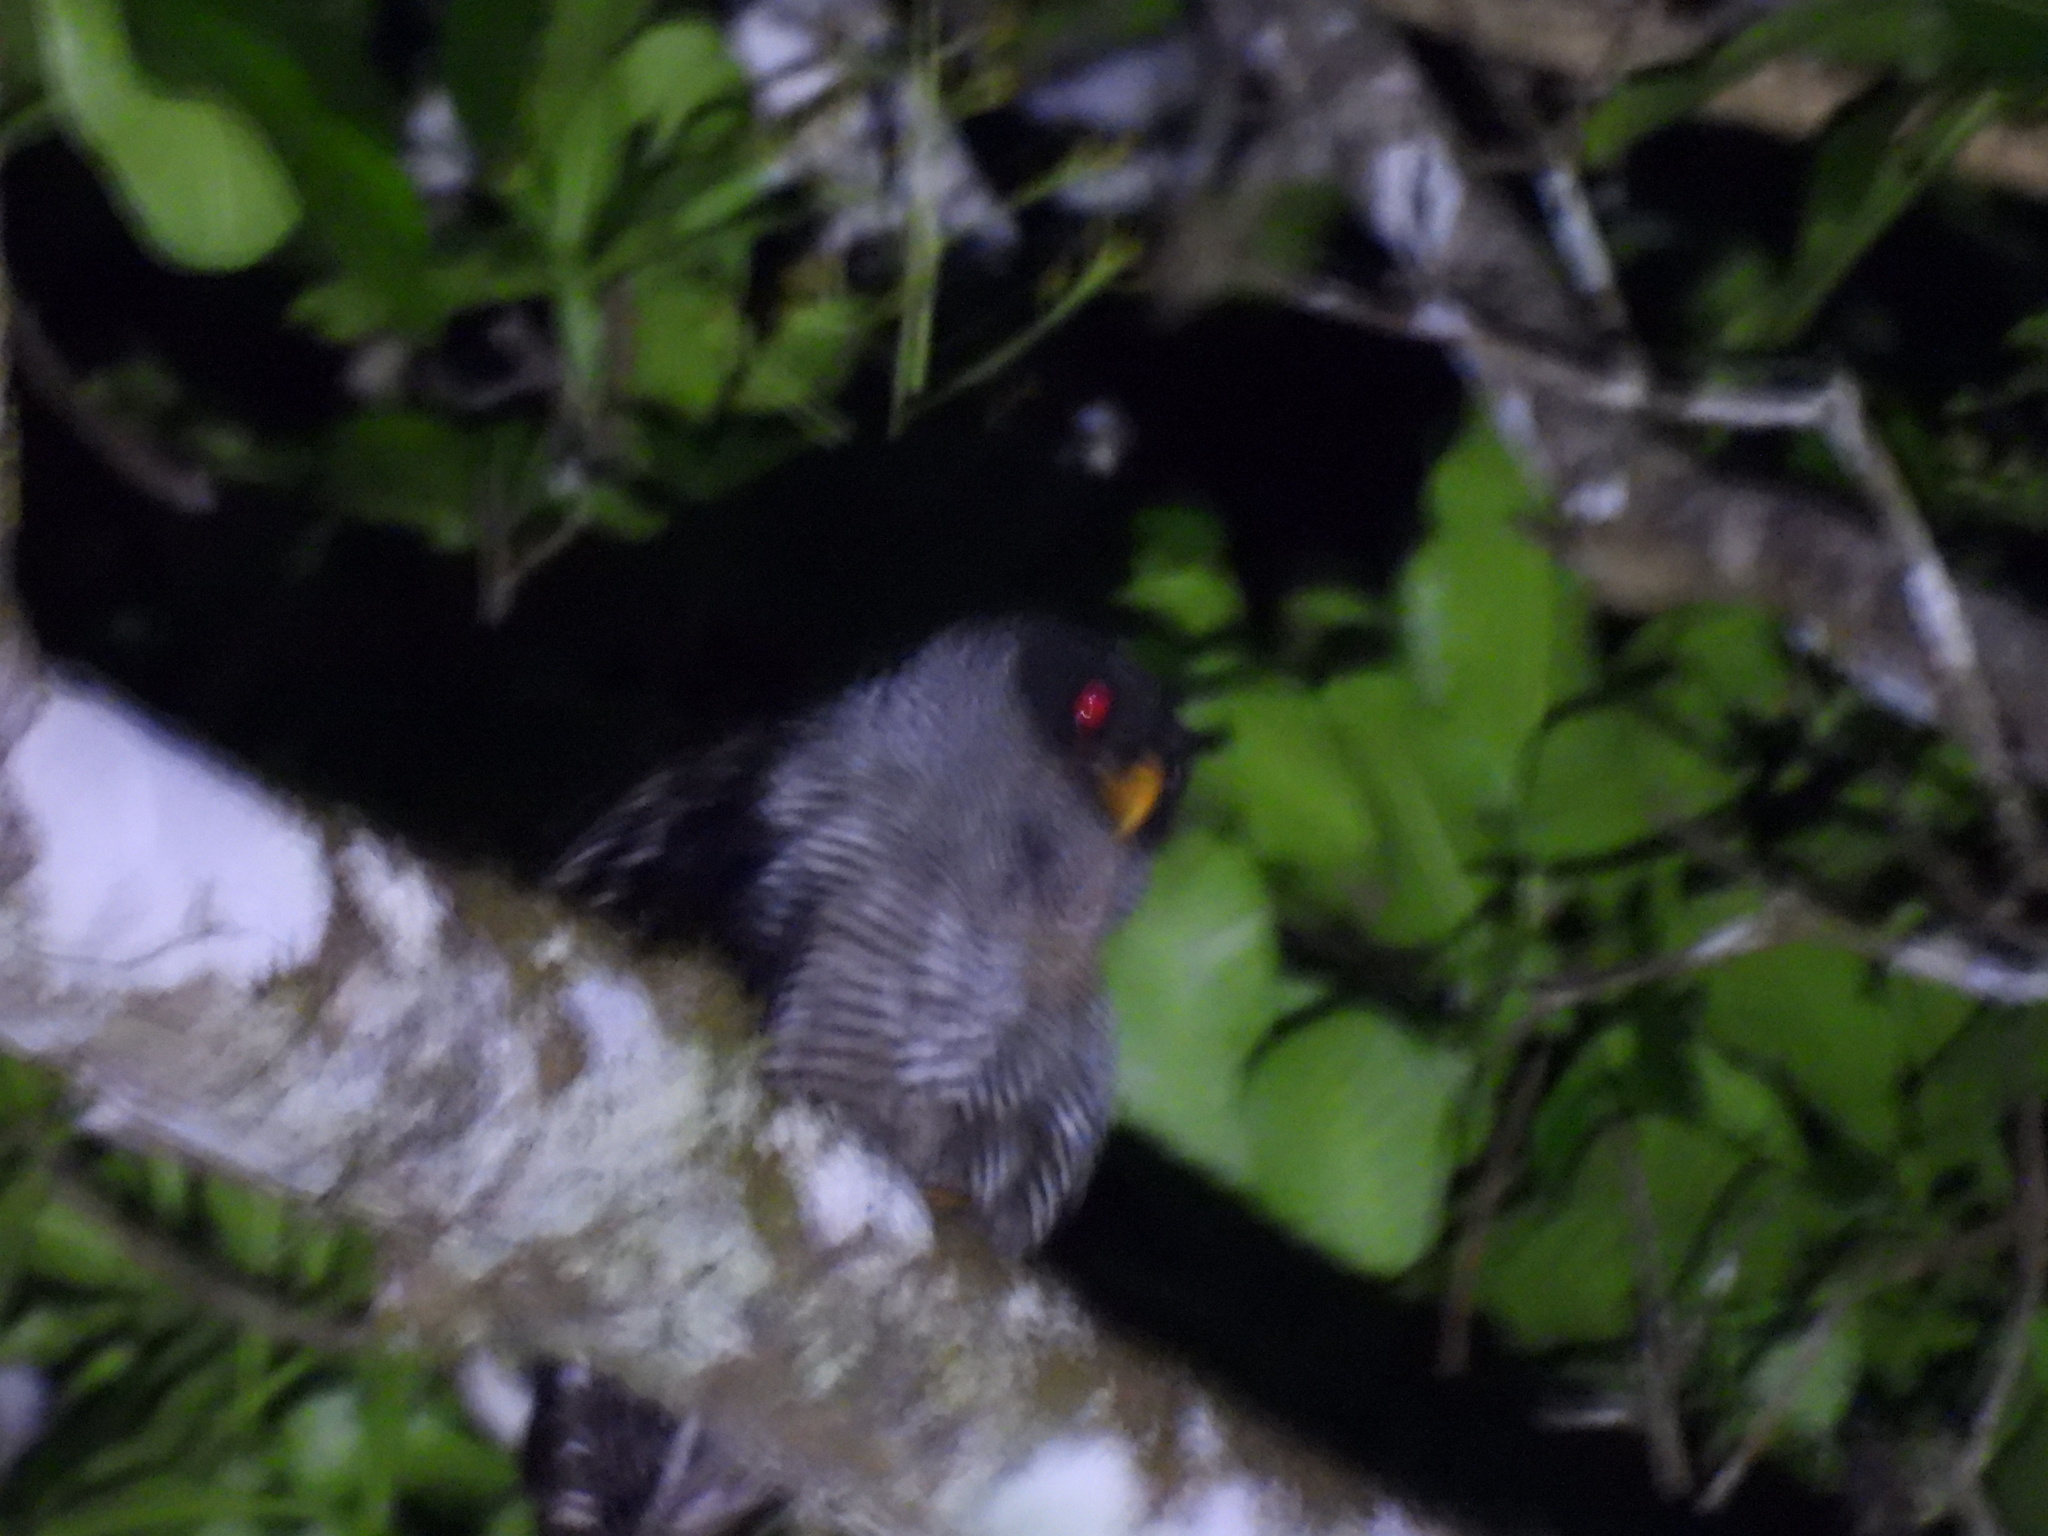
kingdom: Animalia
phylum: Chordata
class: Aves
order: Strigiformes
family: Strigidae
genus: Strix
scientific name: Strix nigrolineata
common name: Black-and-white owl
